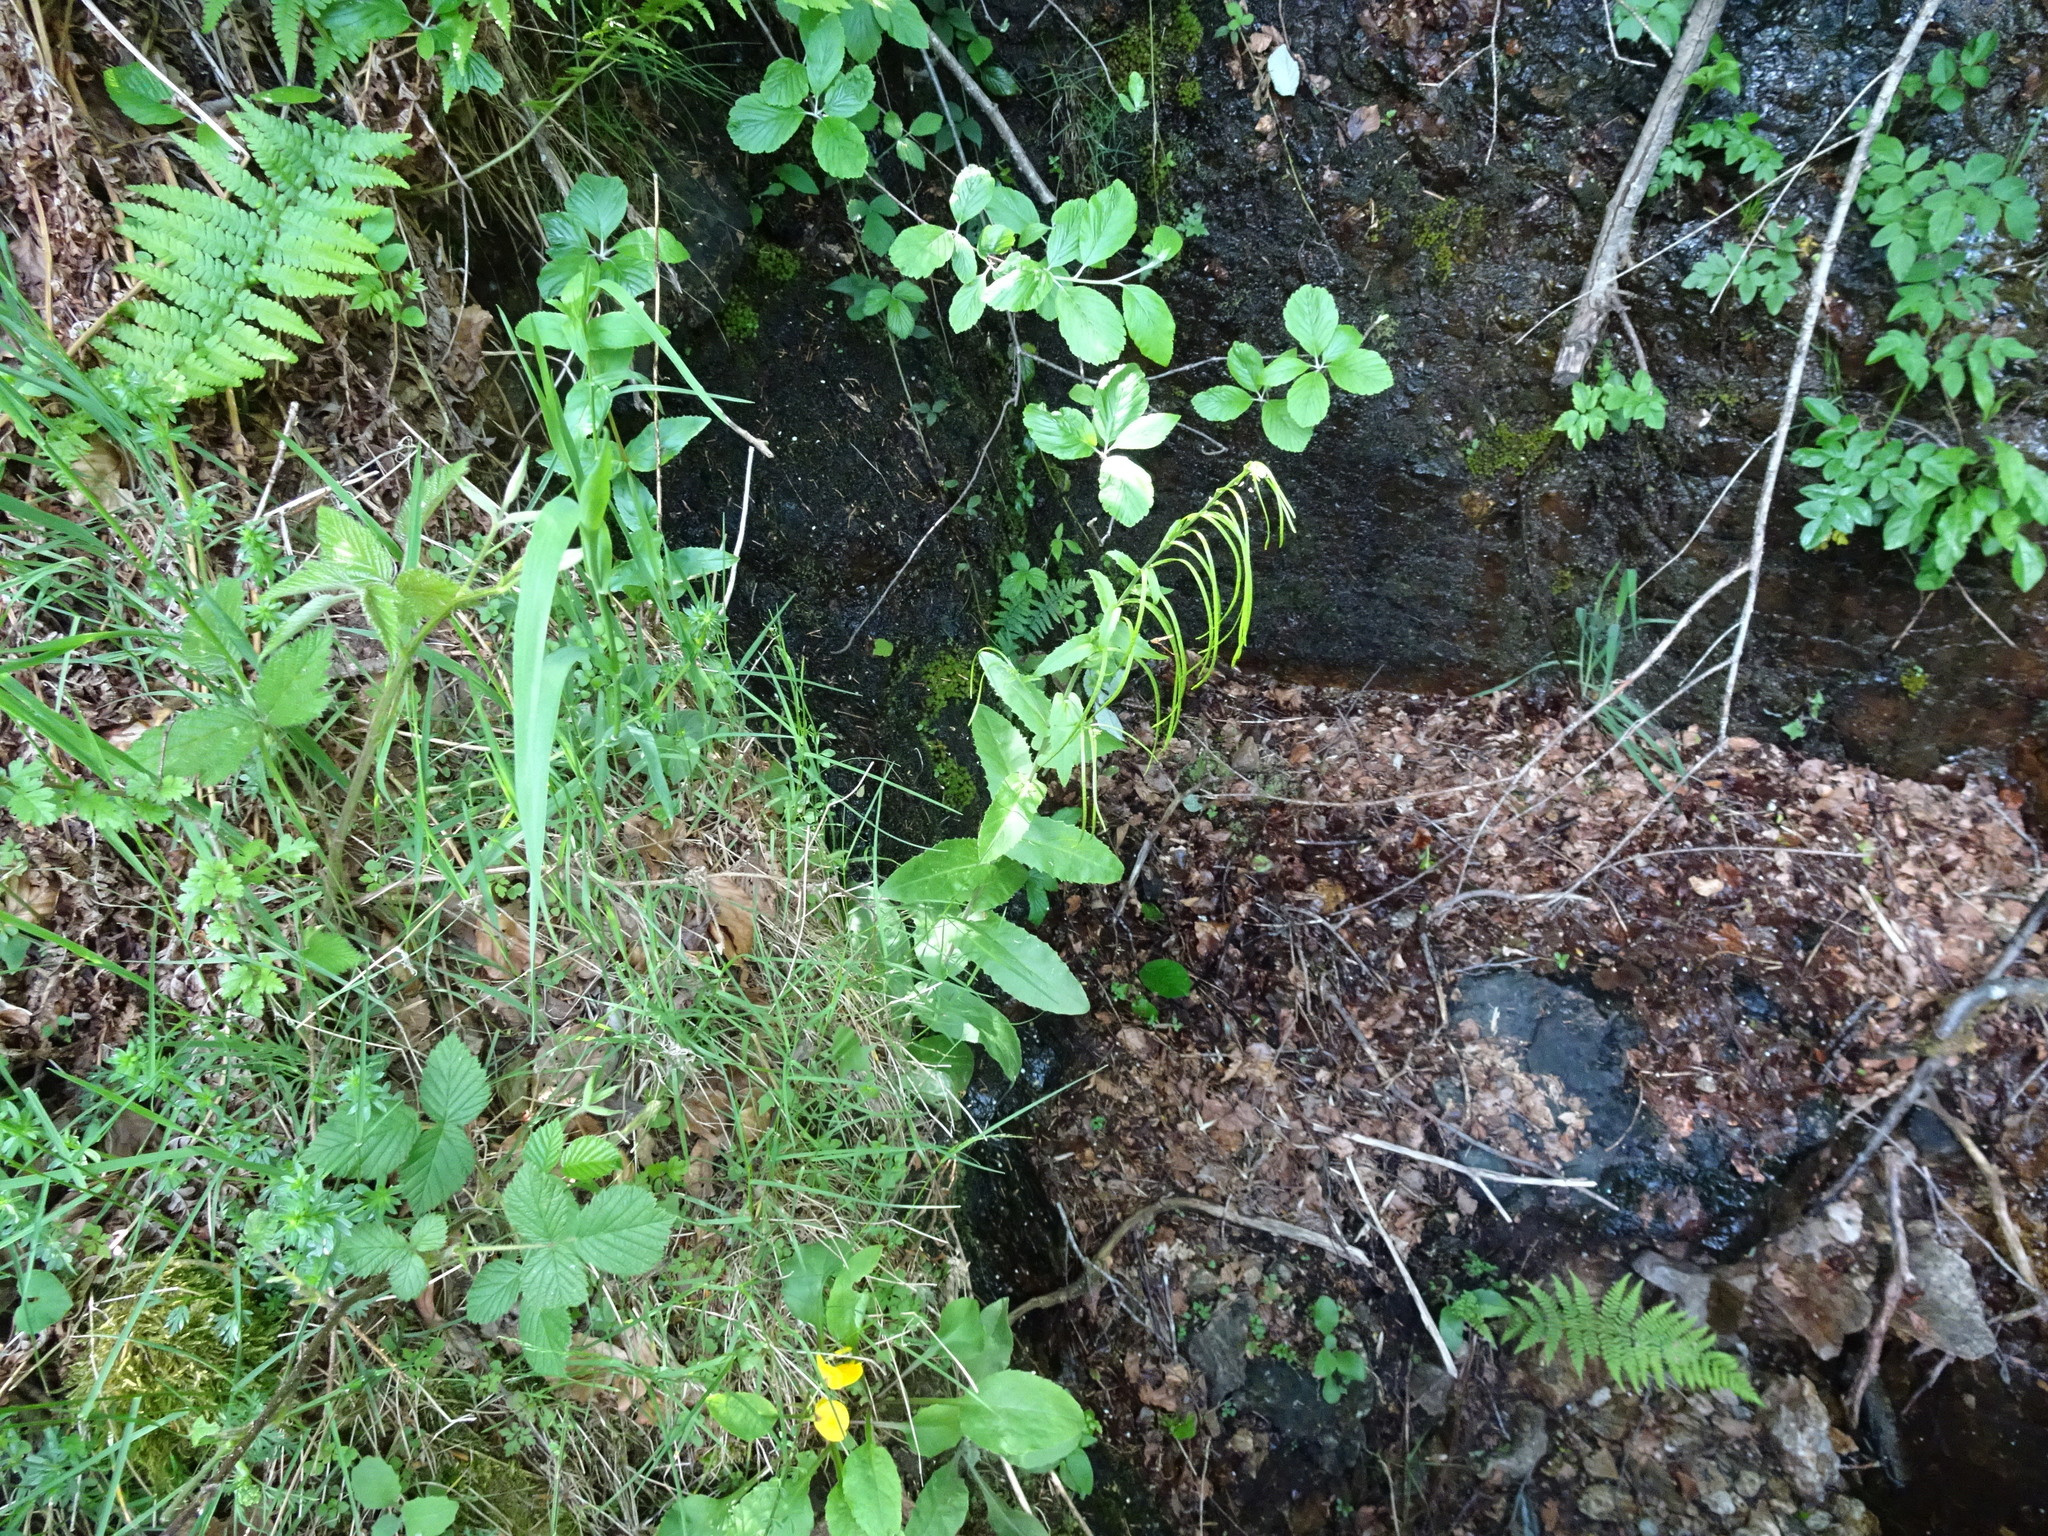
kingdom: Plantae
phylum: Tracheophyta
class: Magnoliopsida
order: Brassicales
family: Brassicaceae
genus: Pseudoturritis
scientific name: Pseudoturritis turrita
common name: Tower cress
